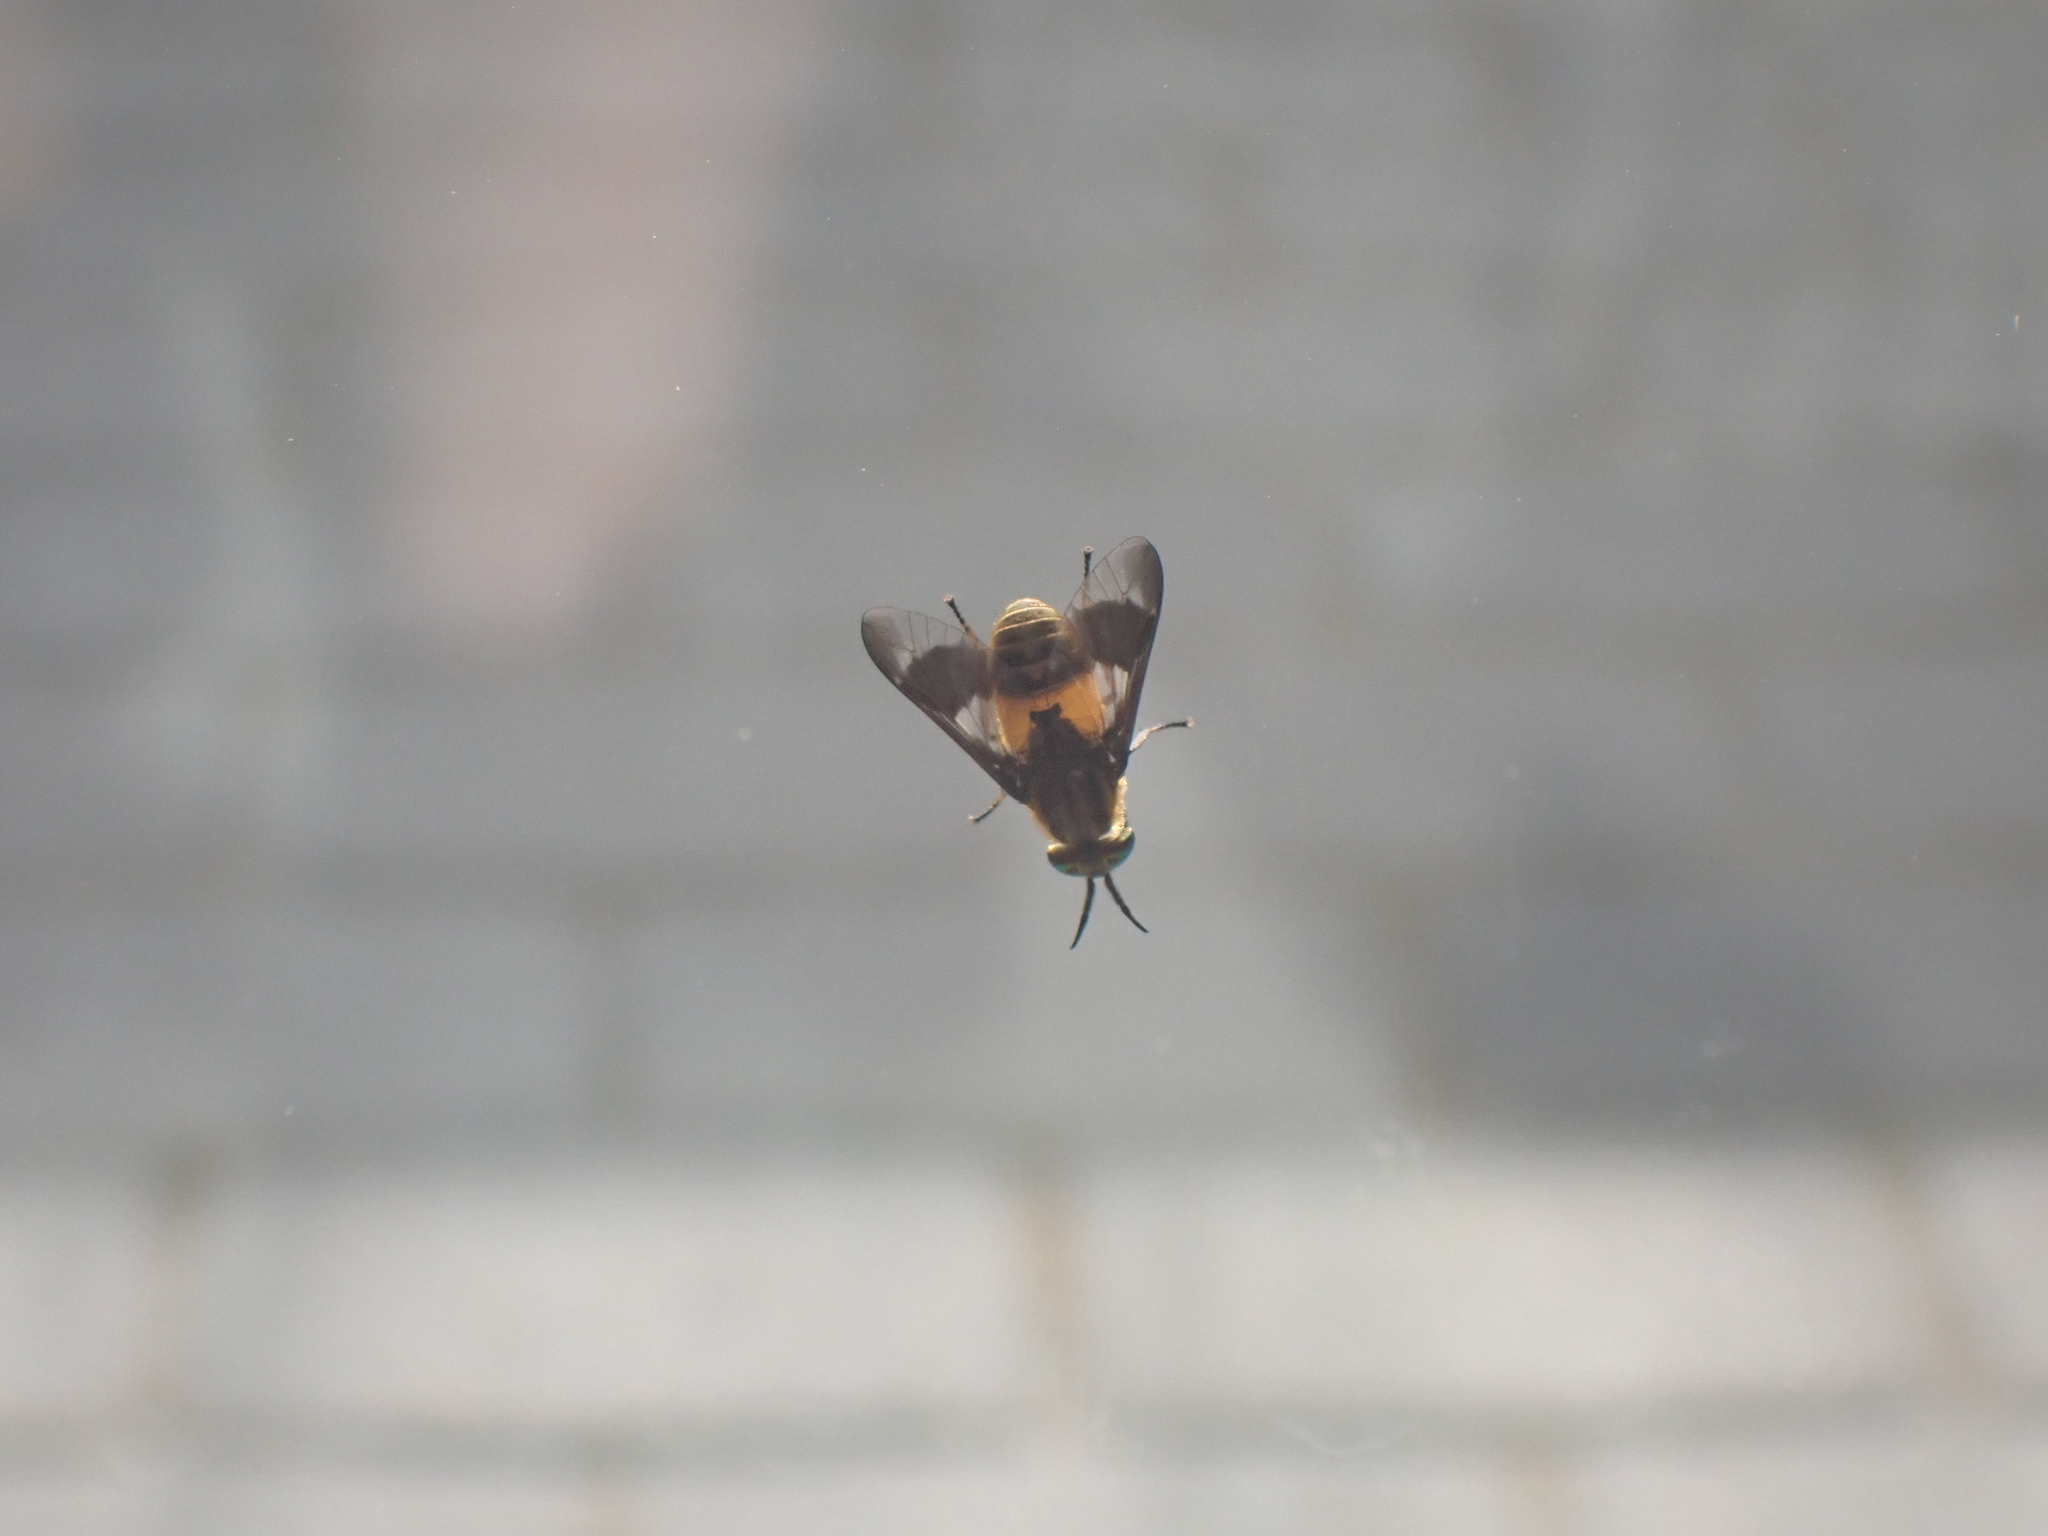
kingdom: Animalia
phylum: Arthropoda
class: Insecta
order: Diptera
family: Tabanidae
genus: Chrysops
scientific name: Chrysops viduatus
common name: Square-spot deerfly
